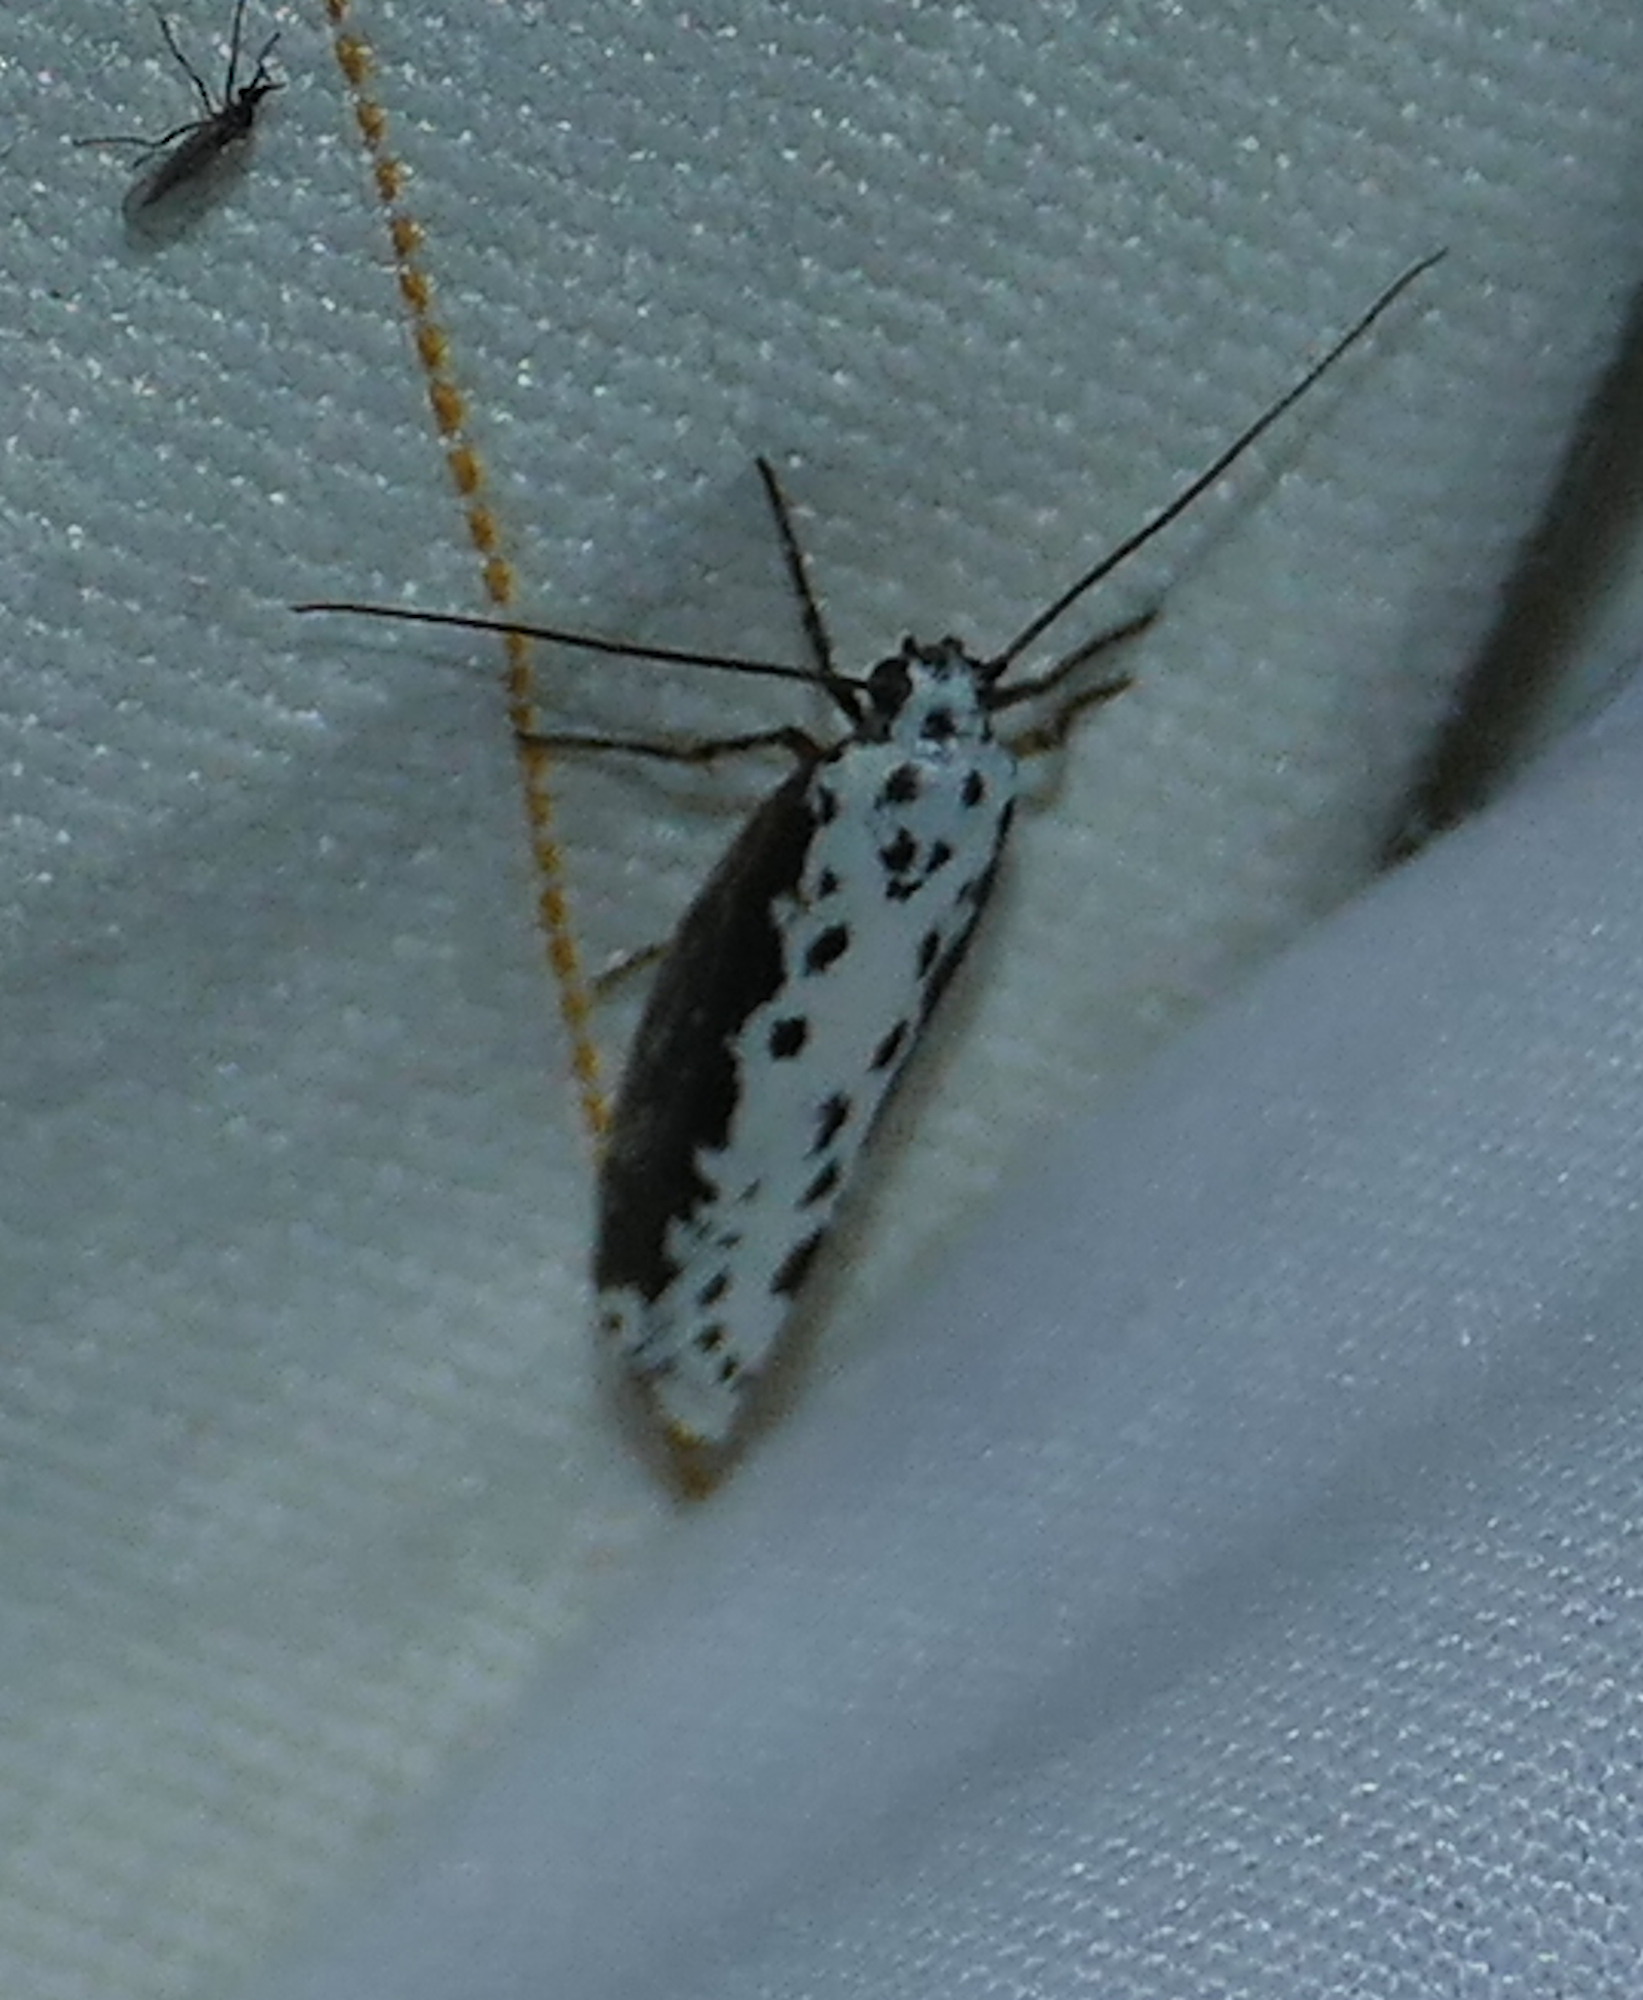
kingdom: Animalia
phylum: Arthropoda
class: Insecta
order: Lepidoptera
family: Ethmiidae
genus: Ethmia
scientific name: Ethmia semilugens
